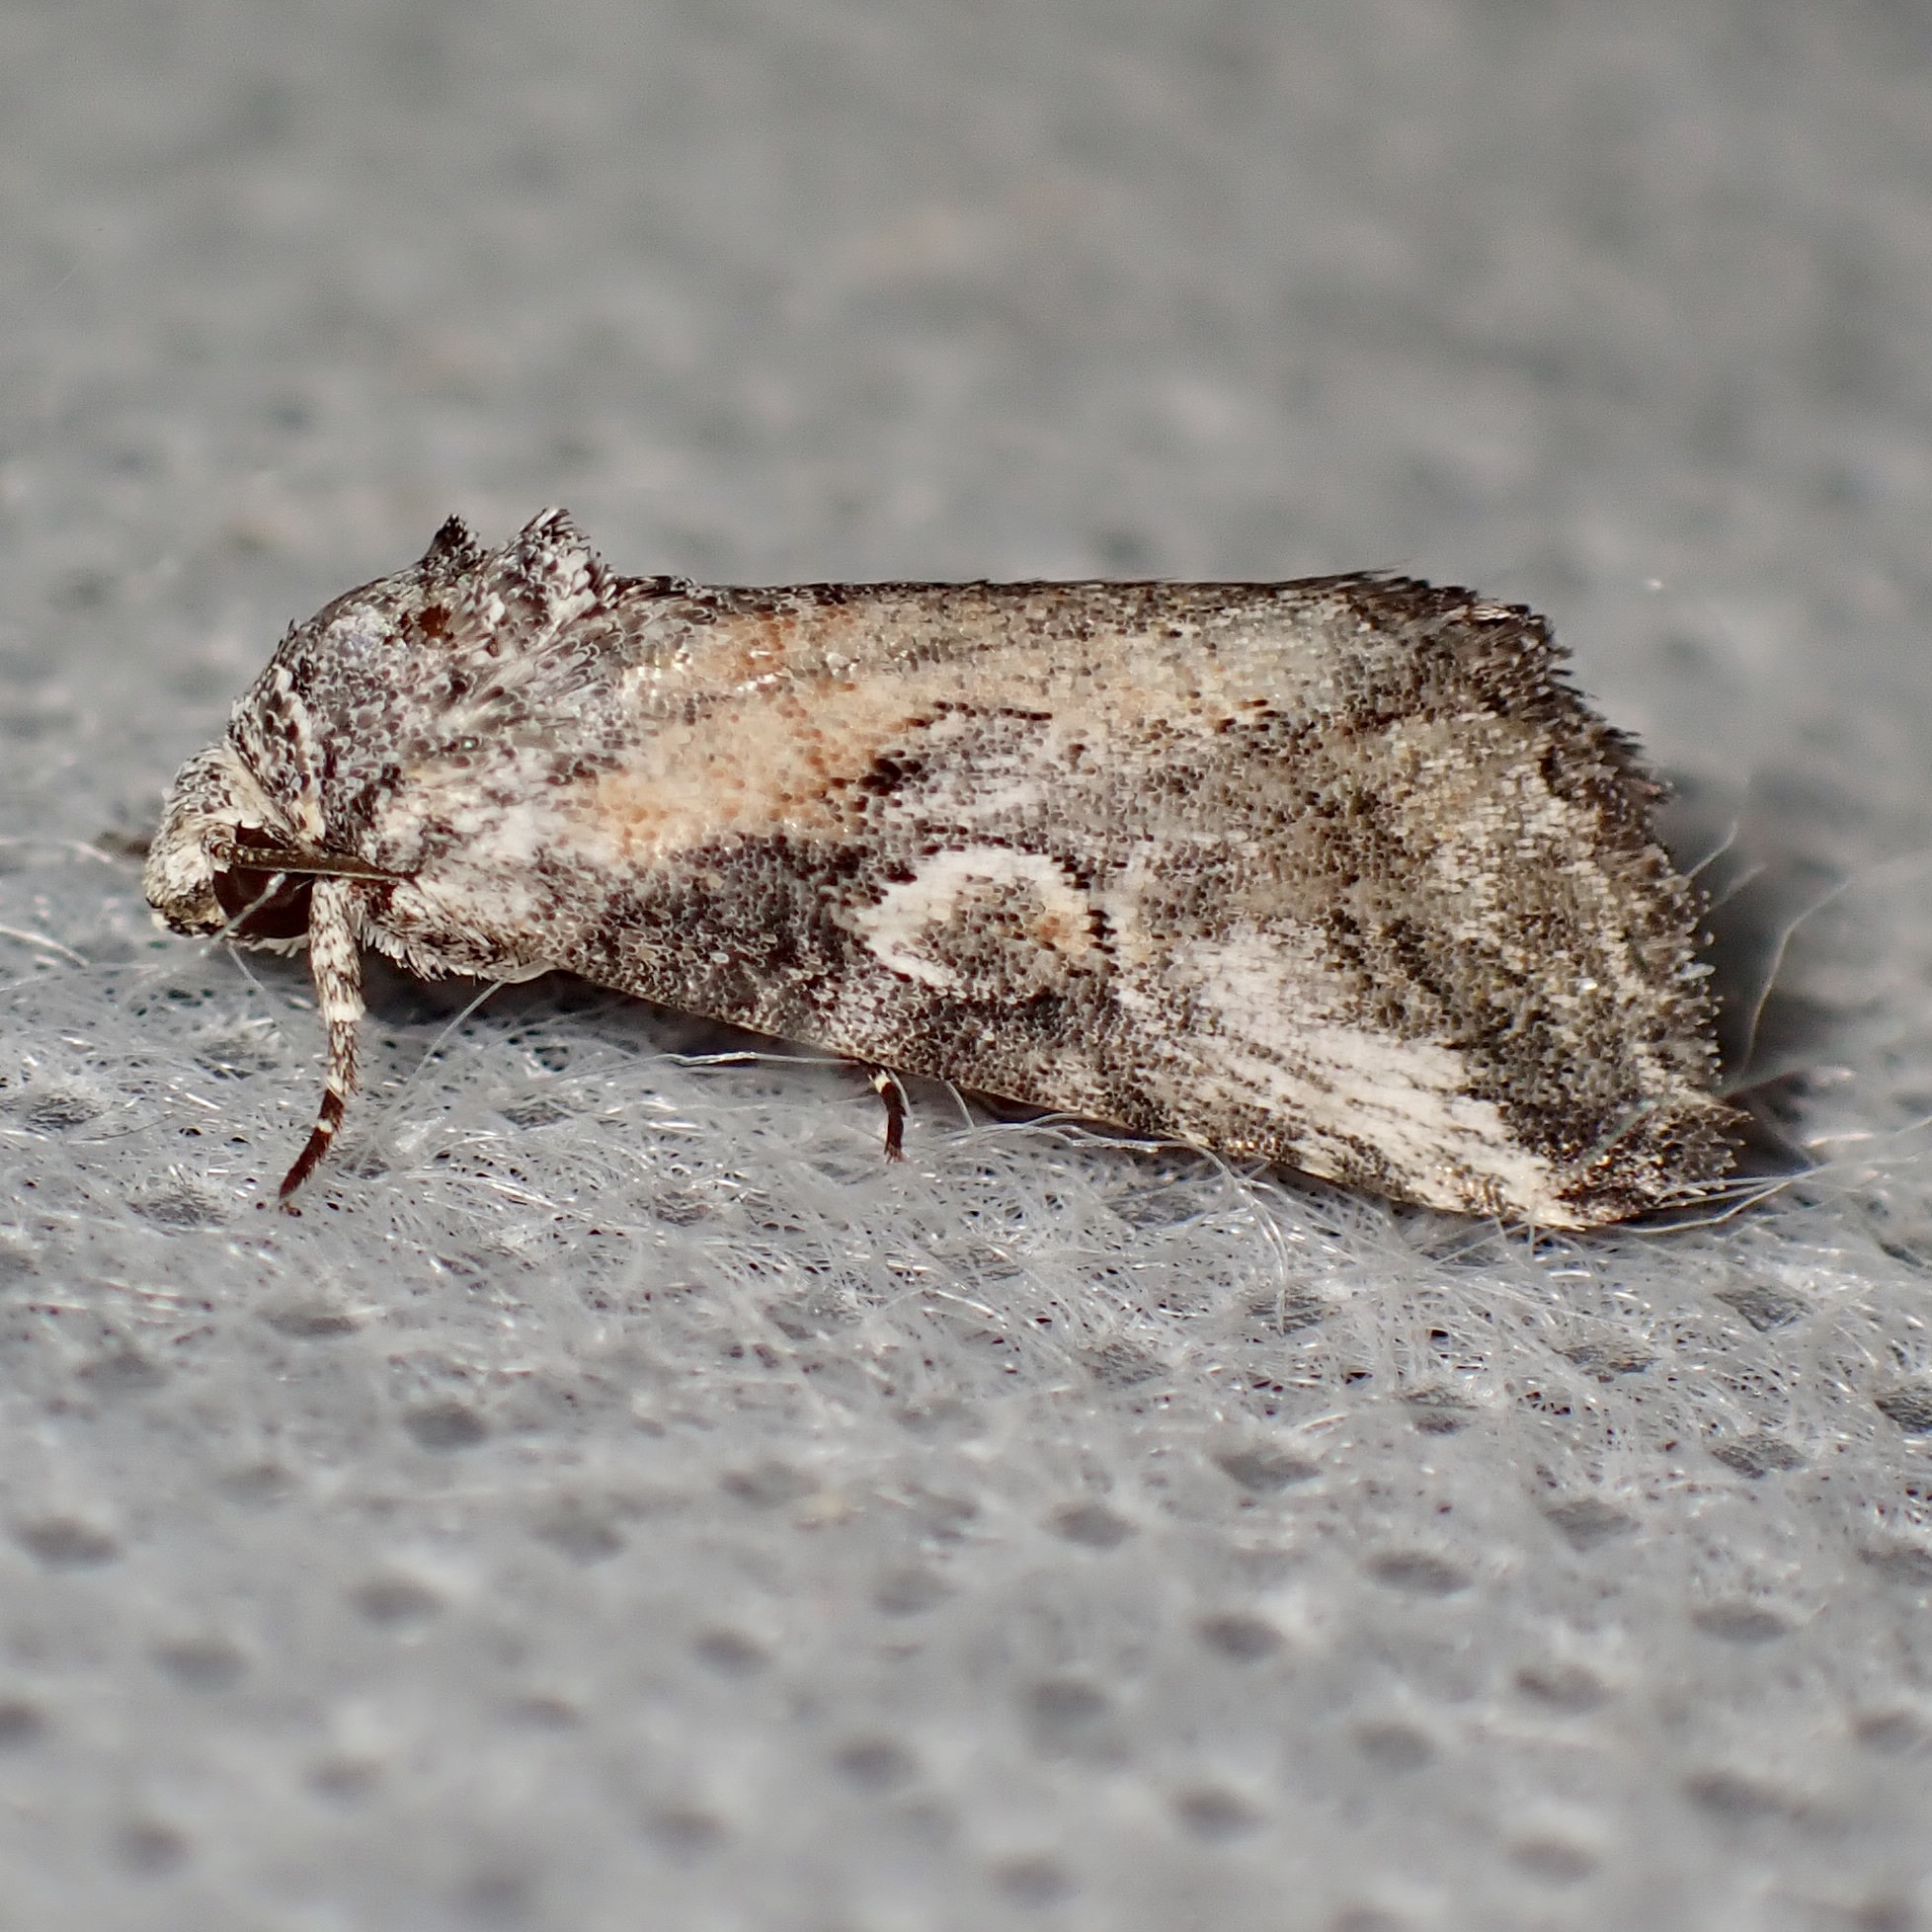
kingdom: Animalia
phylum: Arthropoda
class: Insecta
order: Lepidoptera
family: Noctuidae
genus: Aleptina
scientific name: Aleptina inca
